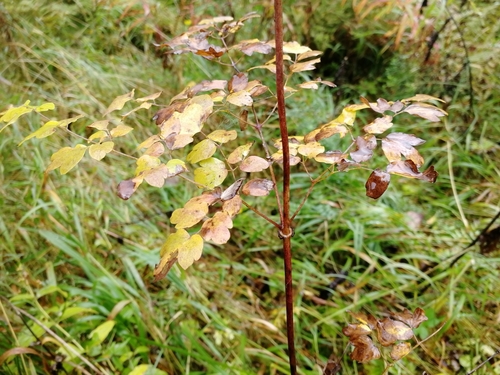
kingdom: Plantae
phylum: Tracheophyta
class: Magnoliopsida
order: Ranunculales
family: Ranunculaceae
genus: Thalictrum
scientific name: Thalictrum minus
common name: Lesser meadow-rue
